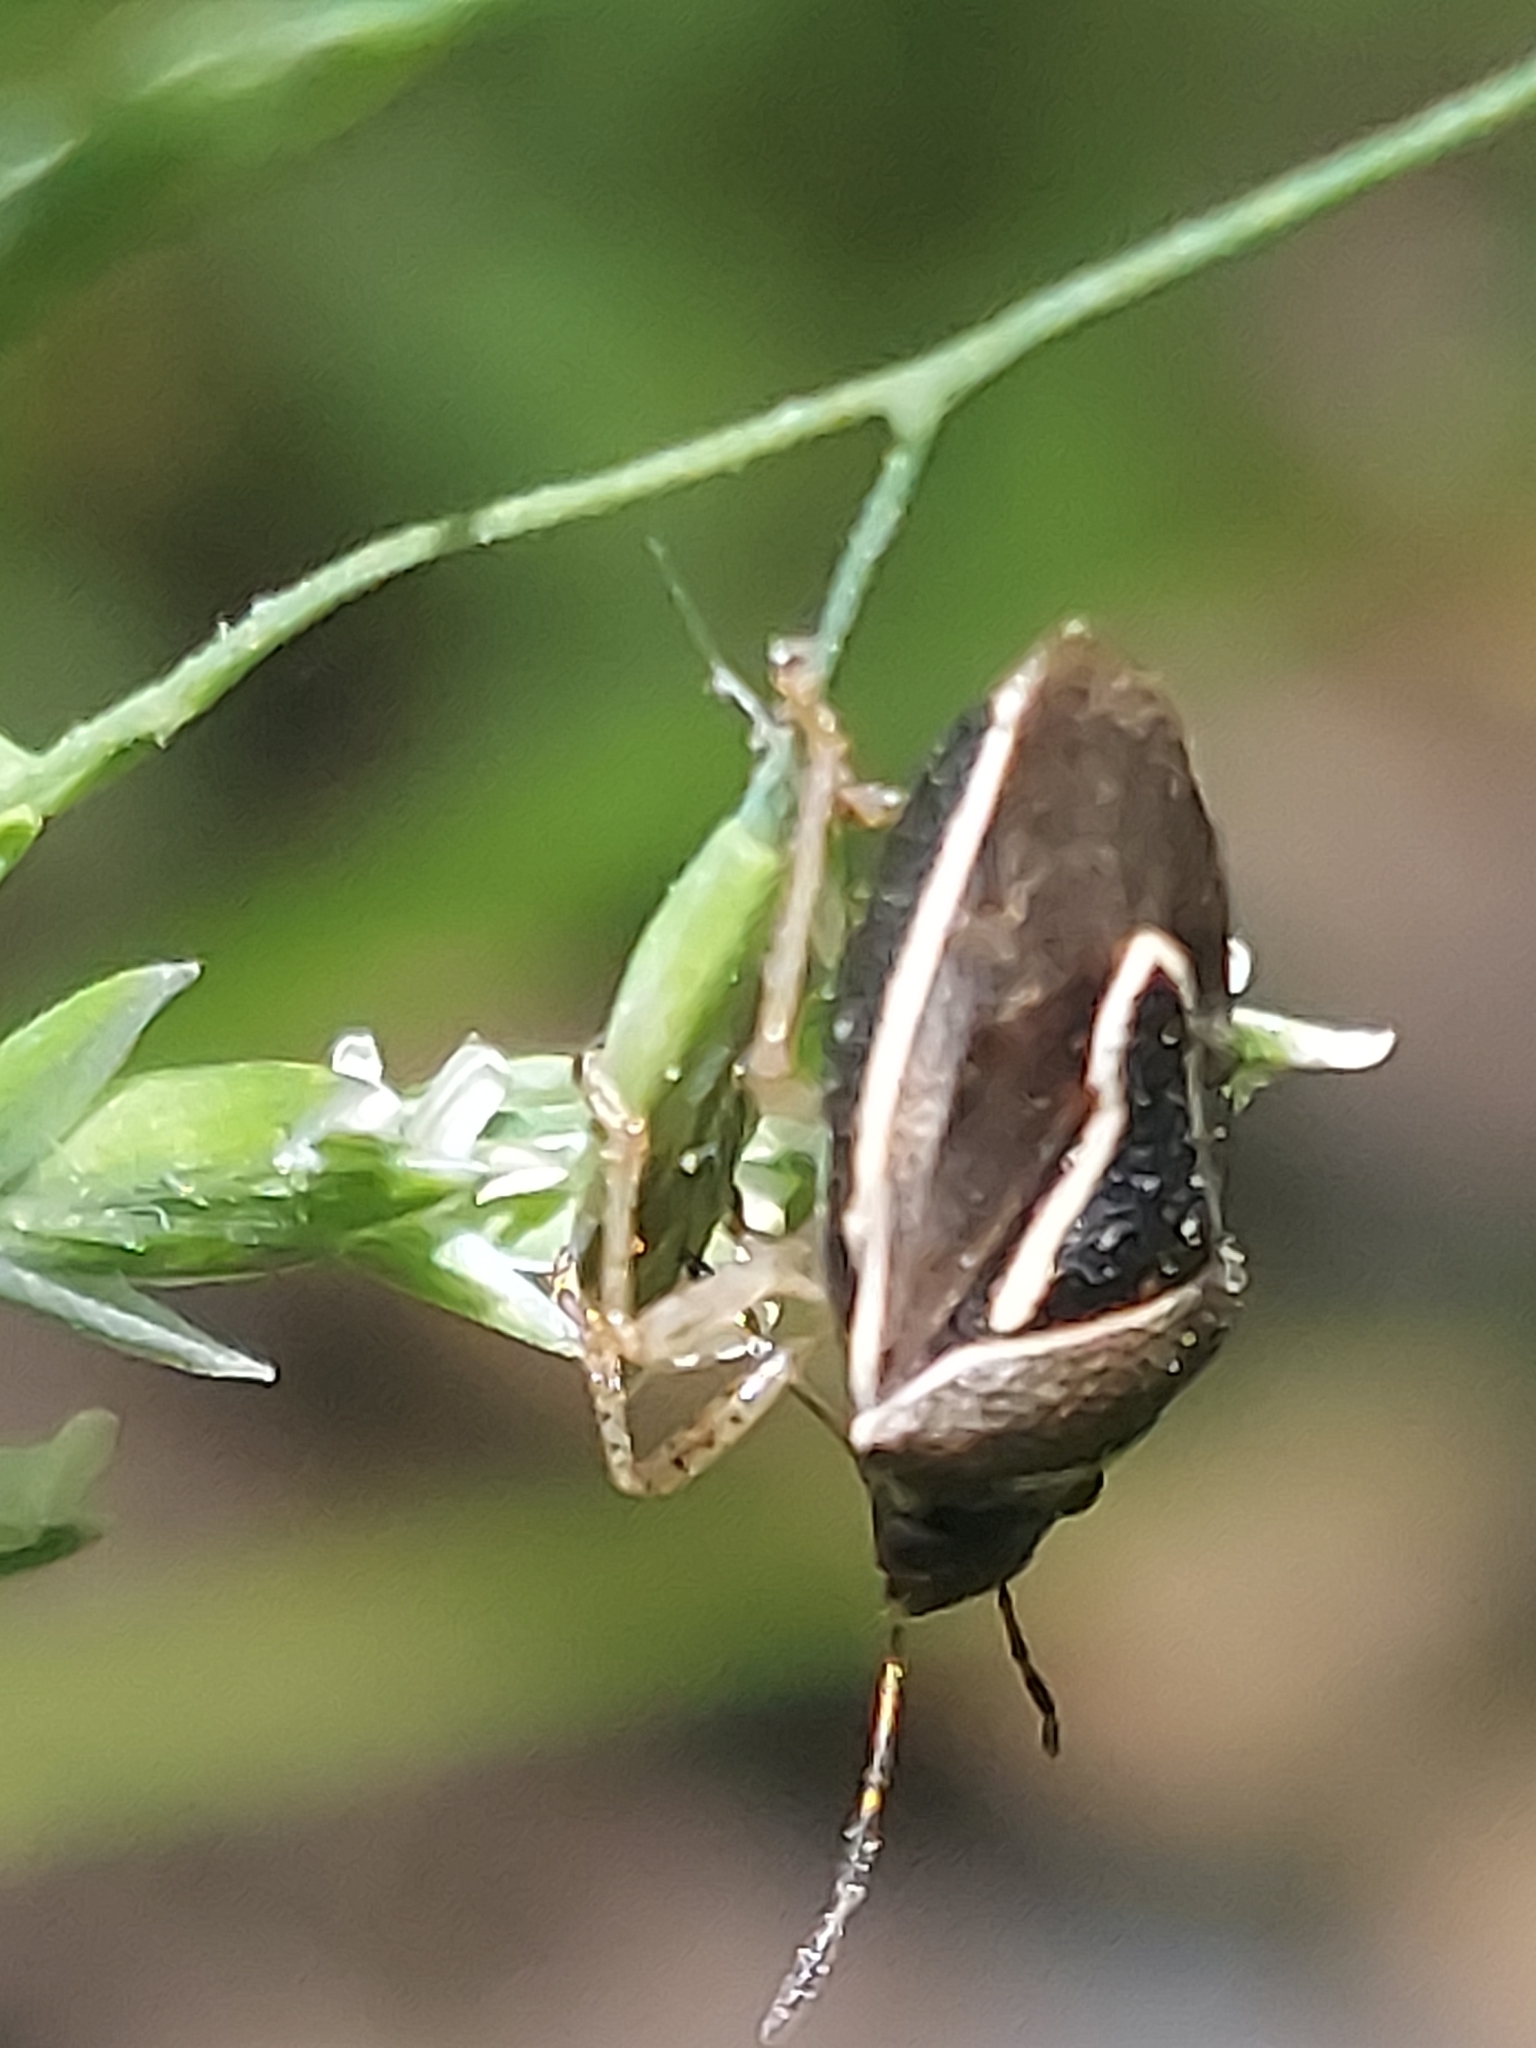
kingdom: Animalia
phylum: Arthropoda
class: Insecta
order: Hemiptera
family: Pentatomidae
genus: Mormidea
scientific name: Mormidea lugens
